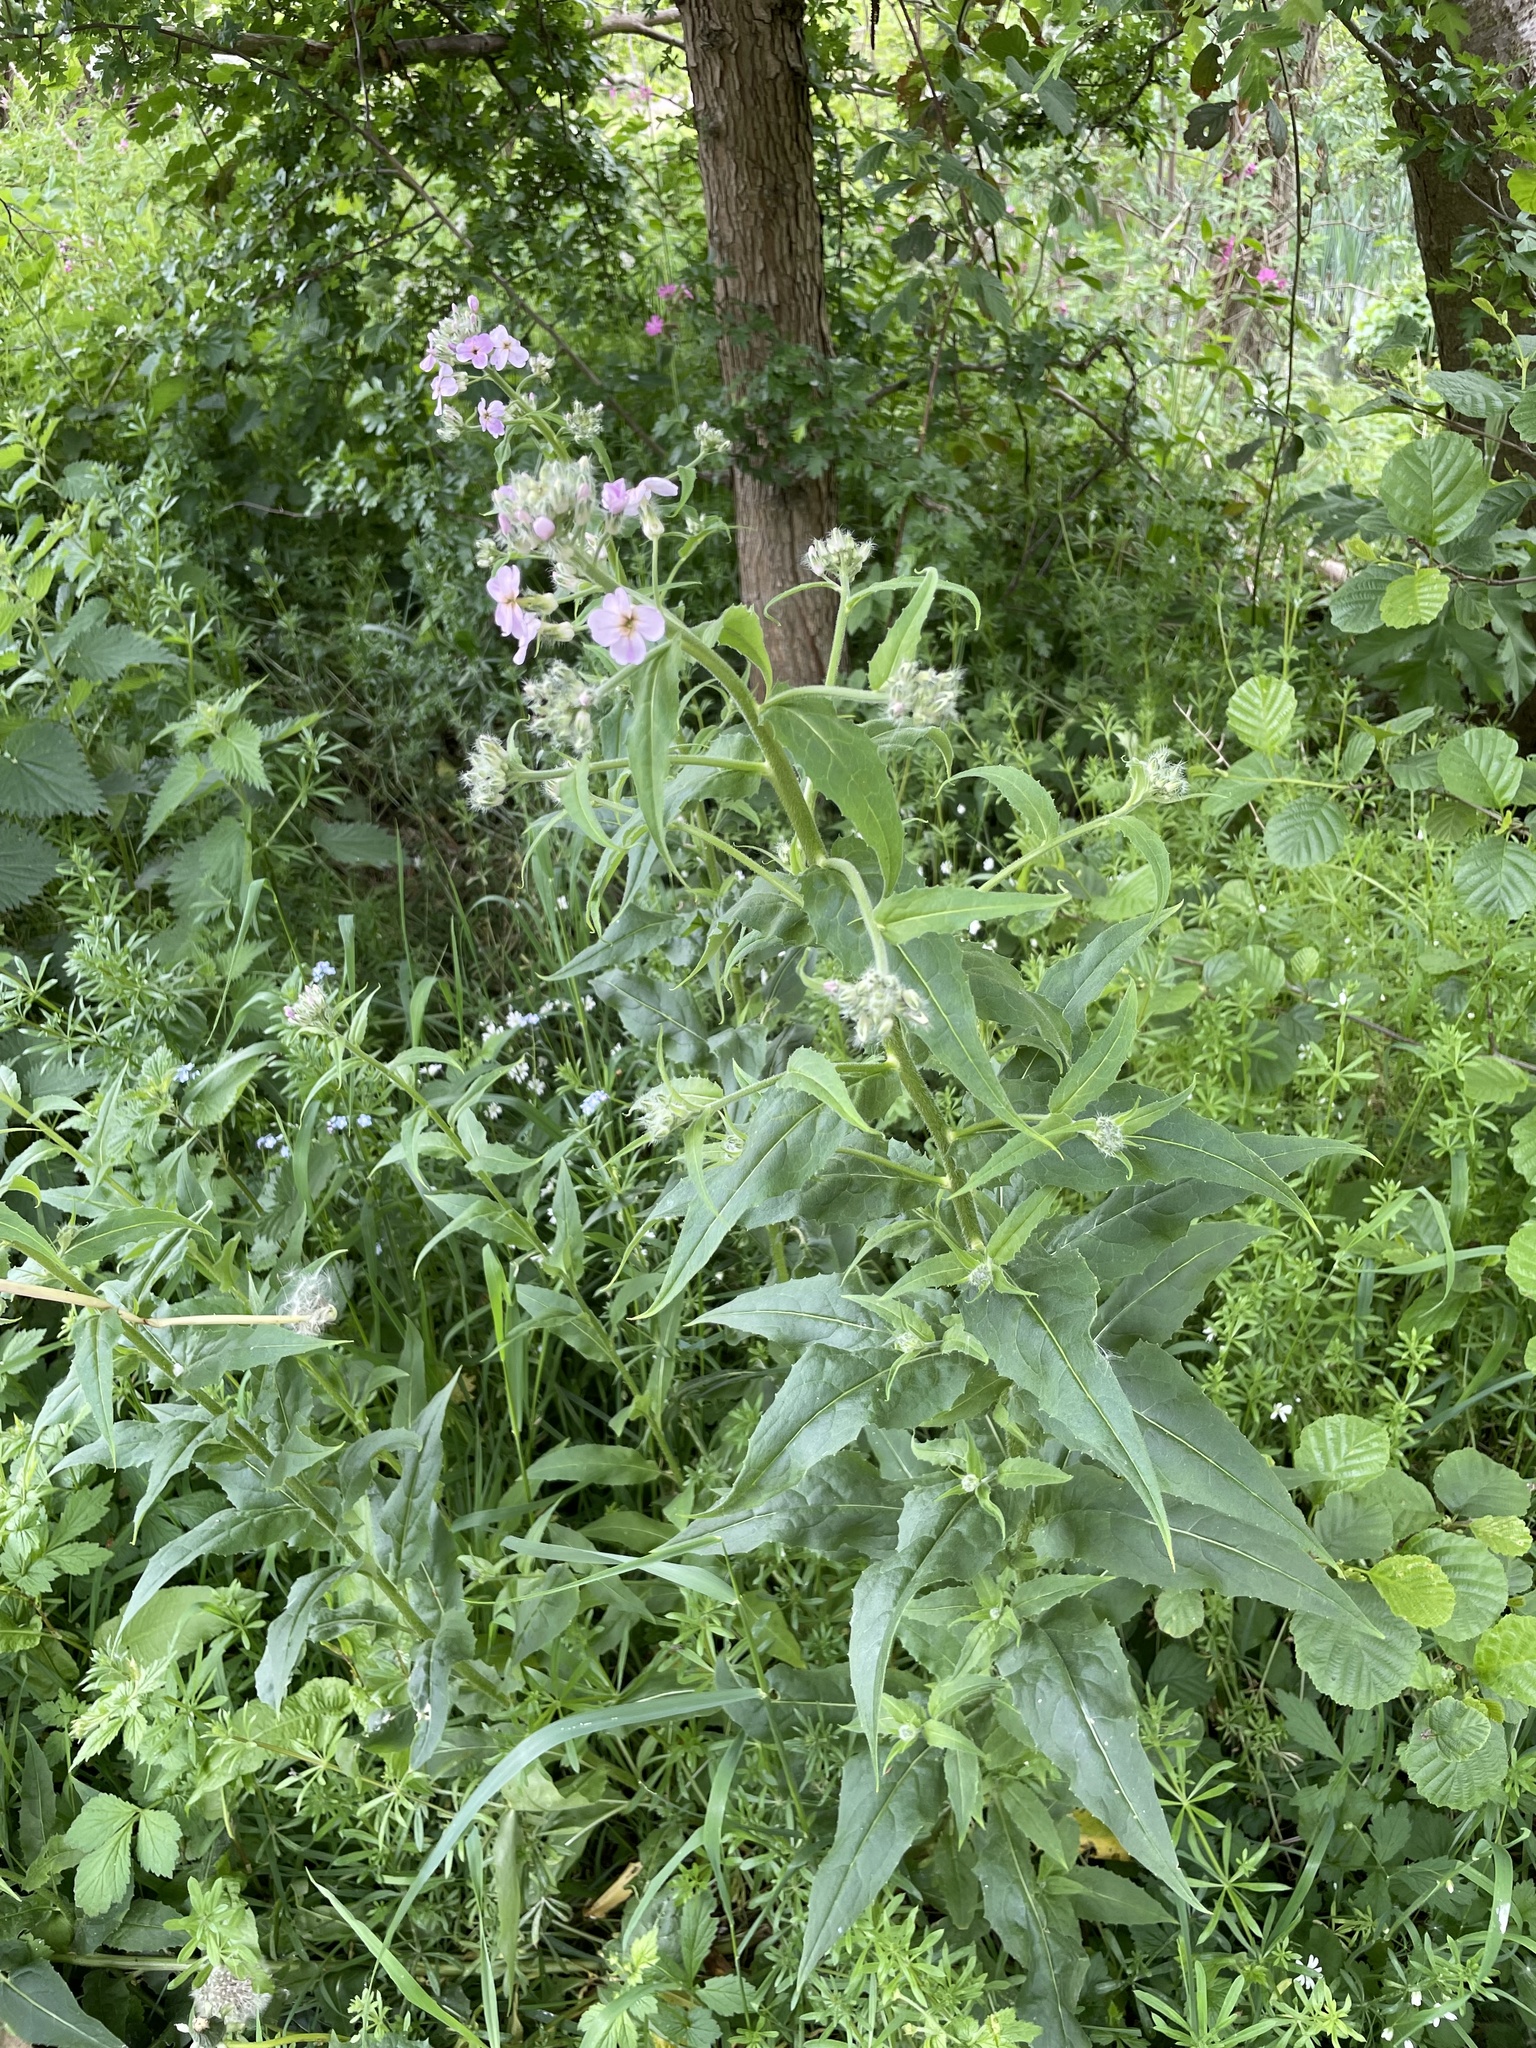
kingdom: Plantae
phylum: Tracheophyta
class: Magnoliopsida
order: Brassicales
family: Brassicaceae
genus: Hesperis
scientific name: Hesperis matronalis
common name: Dame's-violet
